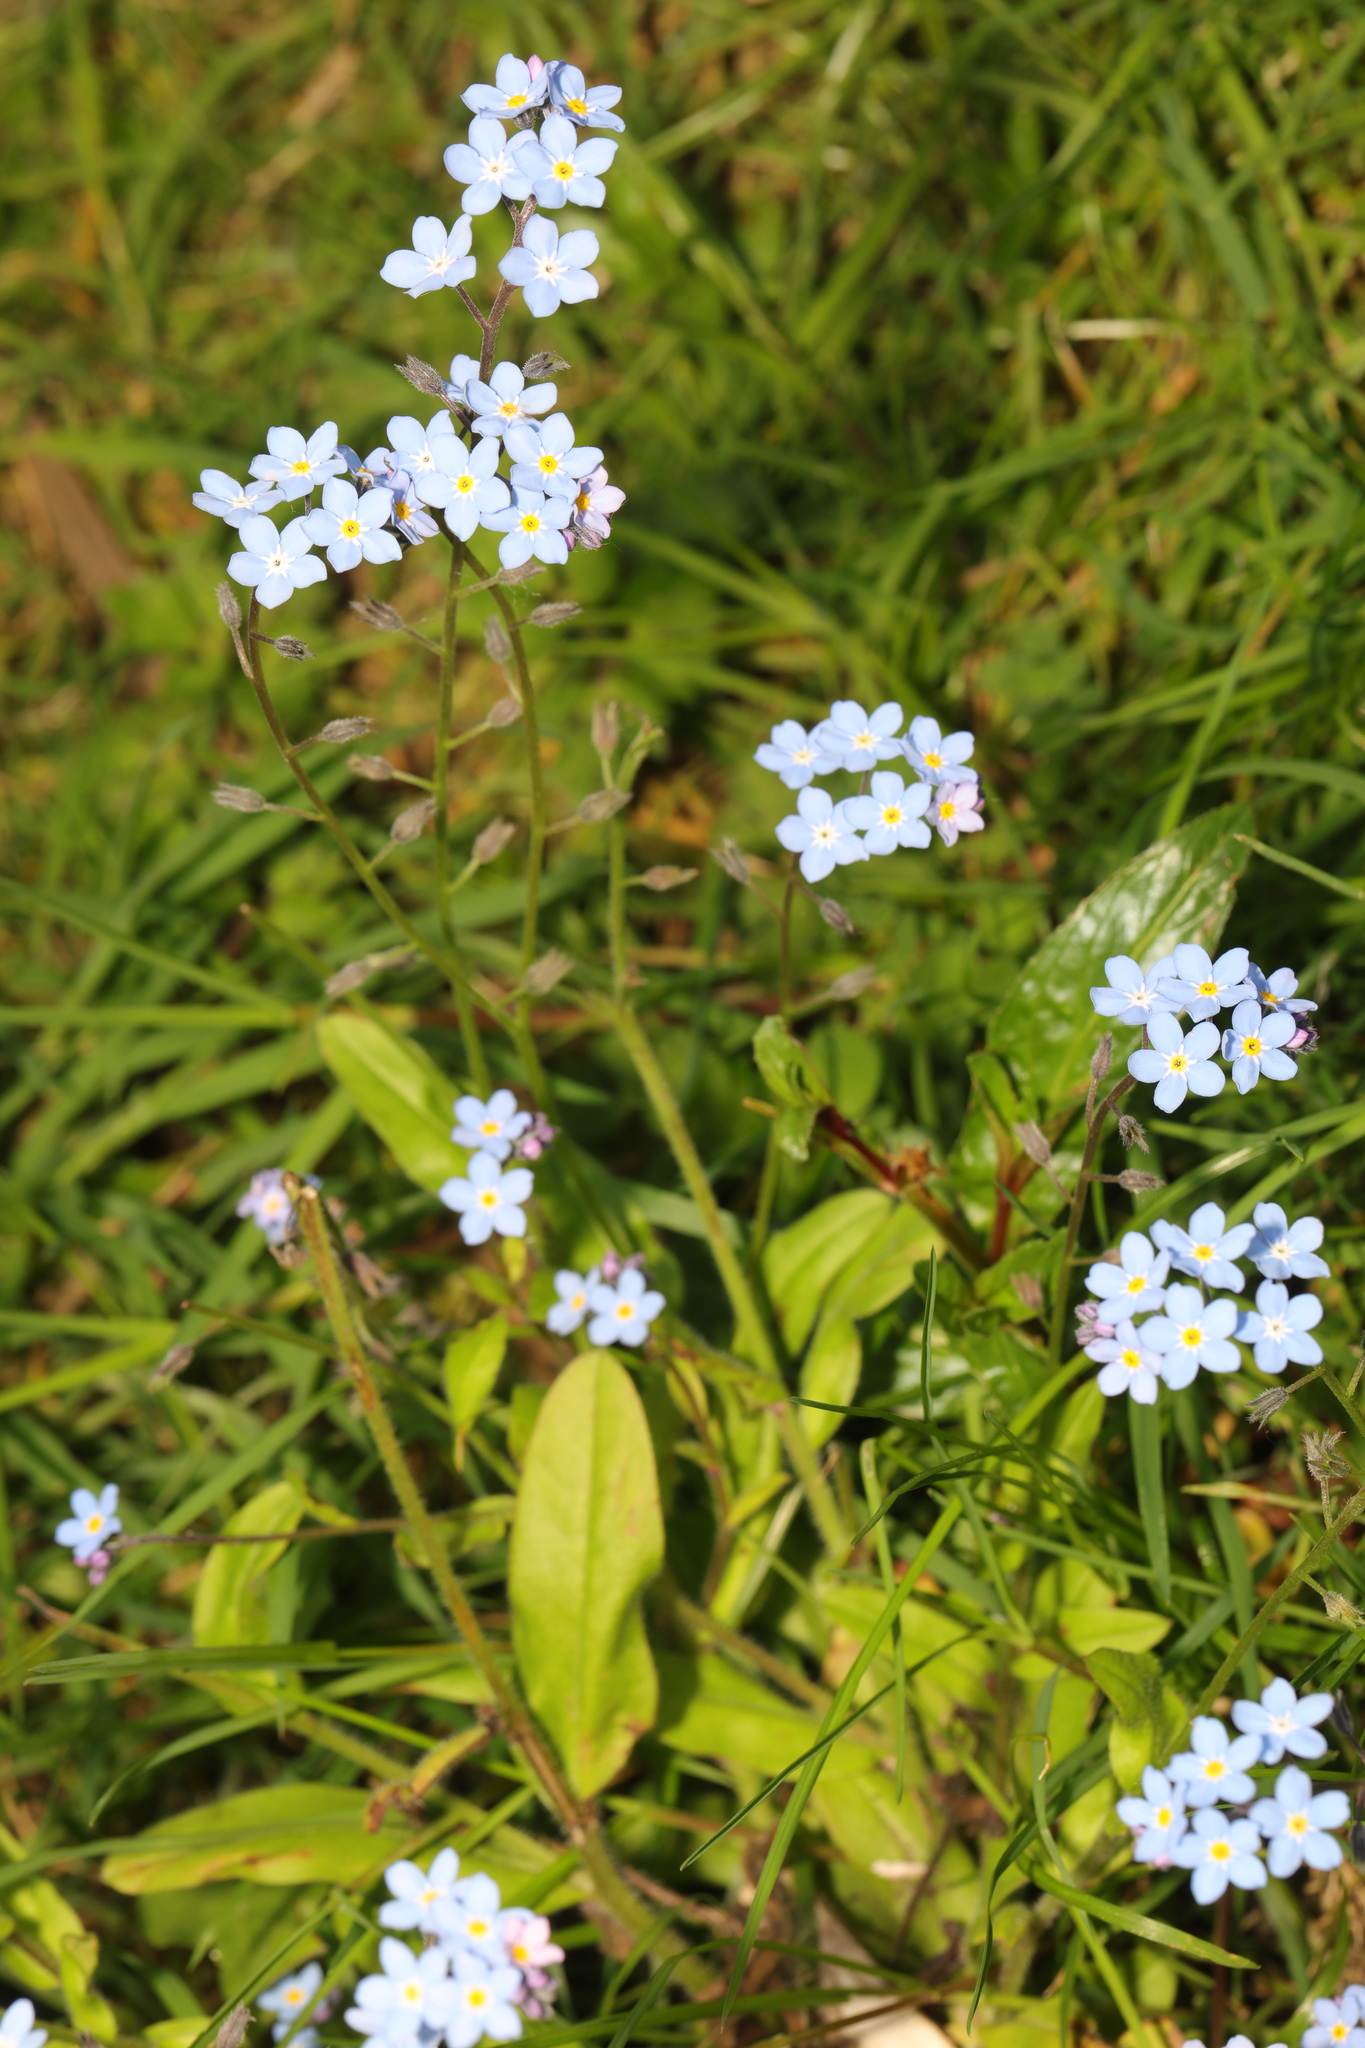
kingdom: Plantae
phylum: Tracheophyta
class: Magnoliopsida
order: Boraginales
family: Boraginaceae
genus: Myosotis
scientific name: Myosotis sylvatica
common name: Wood forget-me-not
